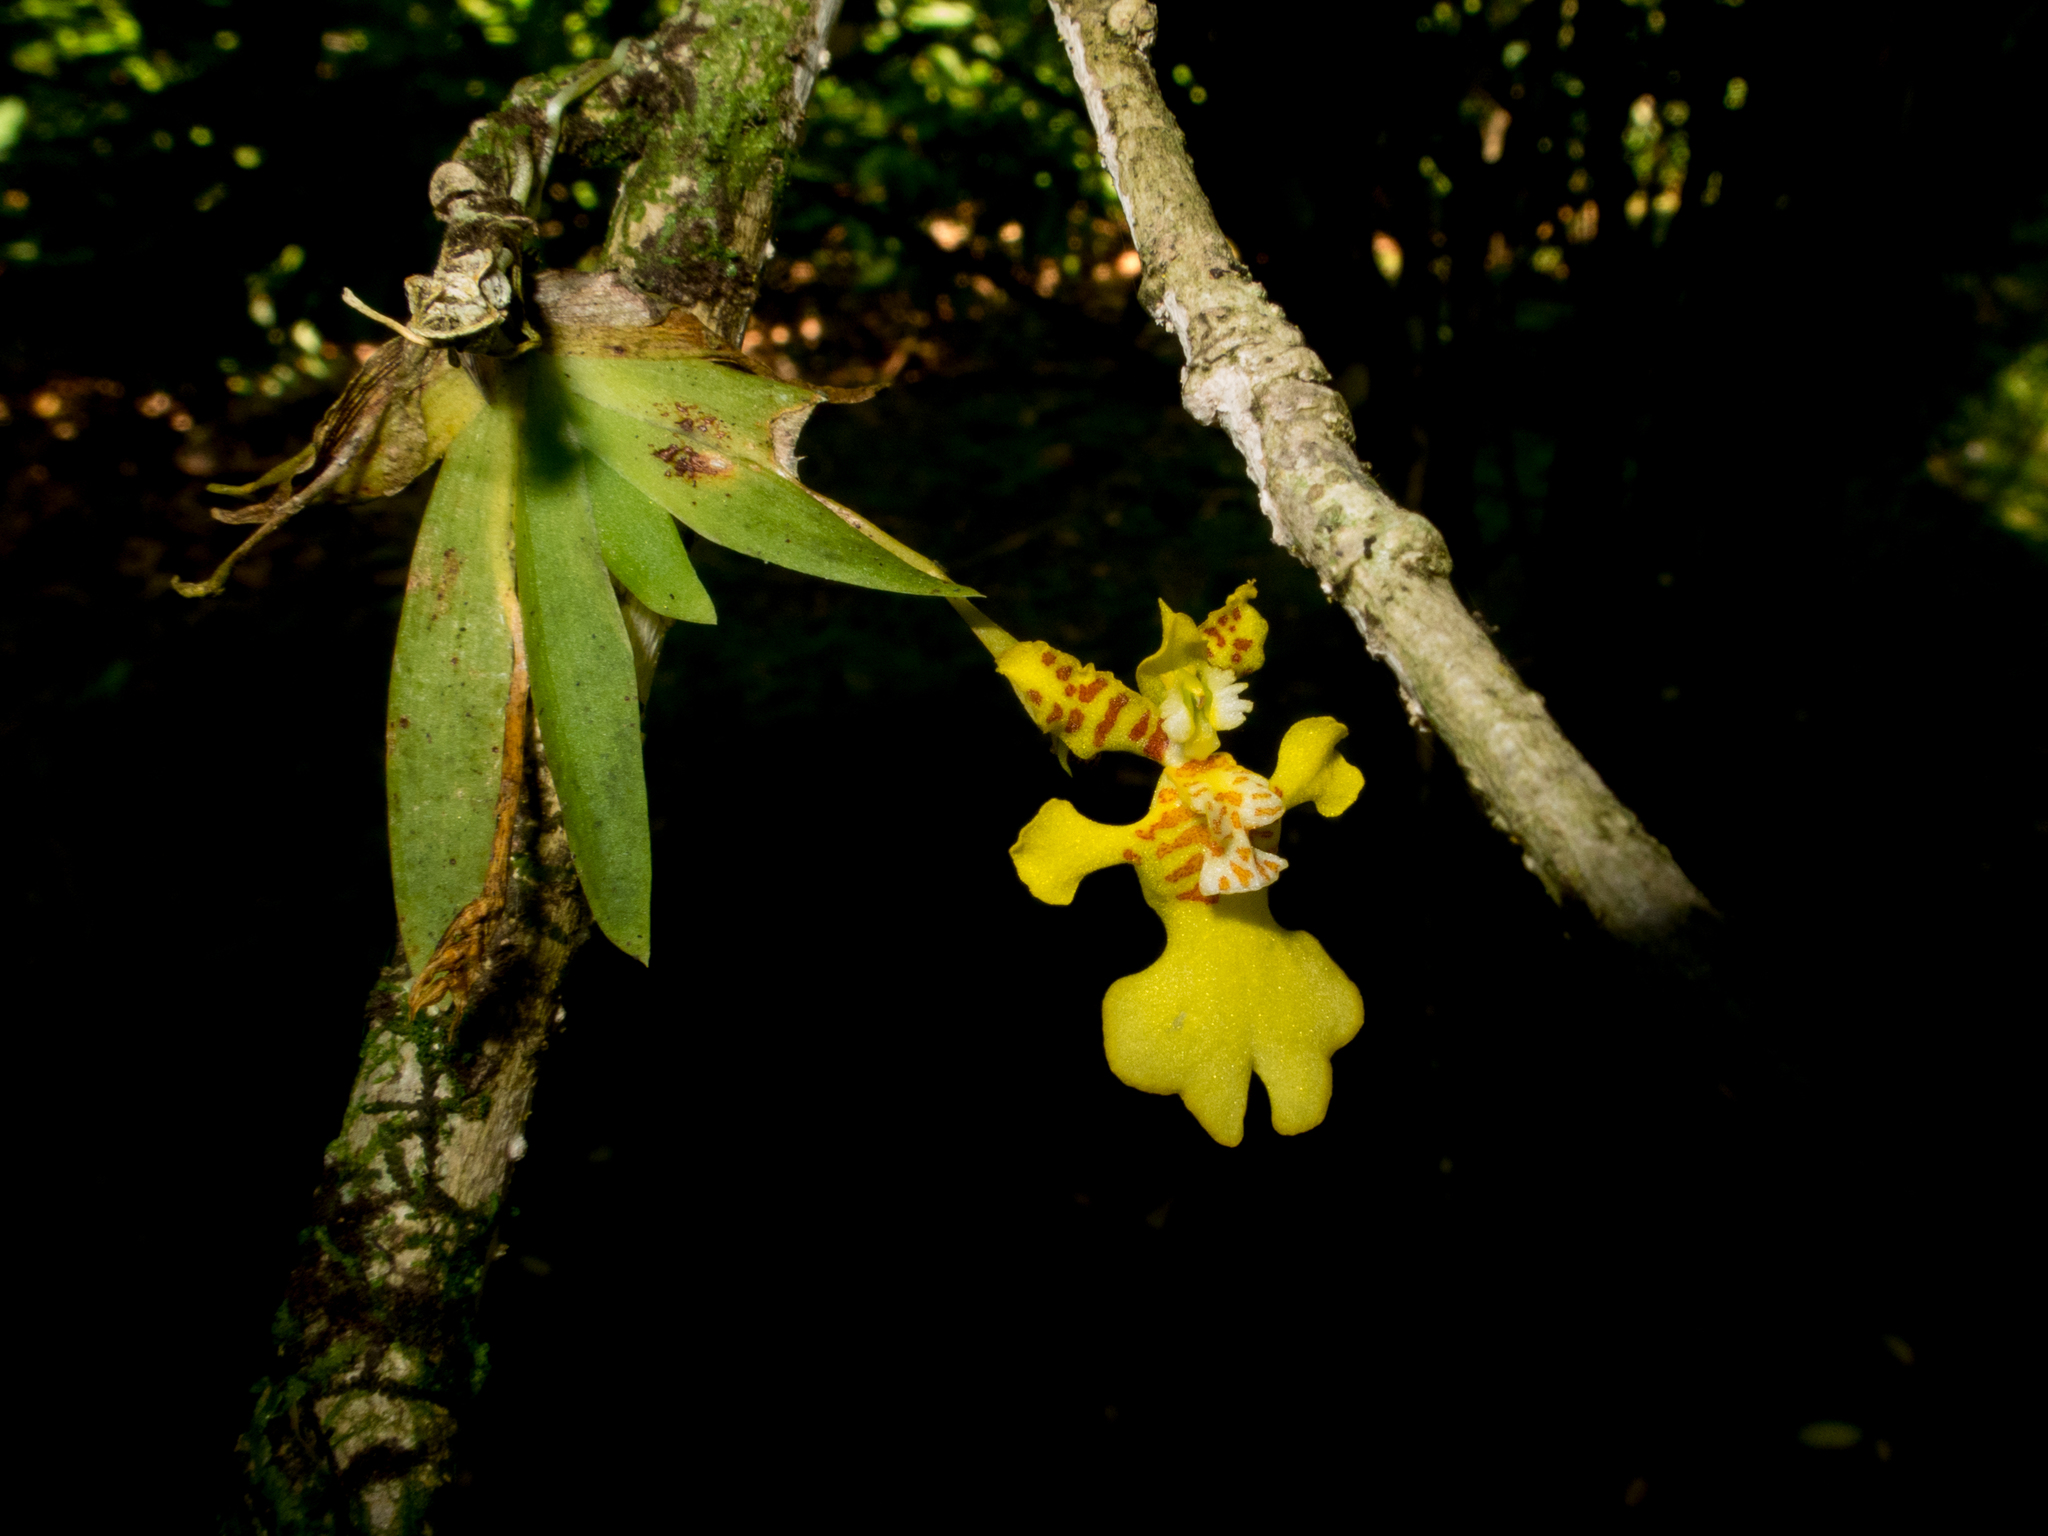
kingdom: Plantae
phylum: Tracheophyta
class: Liliopsida
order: Asparagales
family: Orchidaceae
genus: Erycina
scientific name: Erycina pusilla
